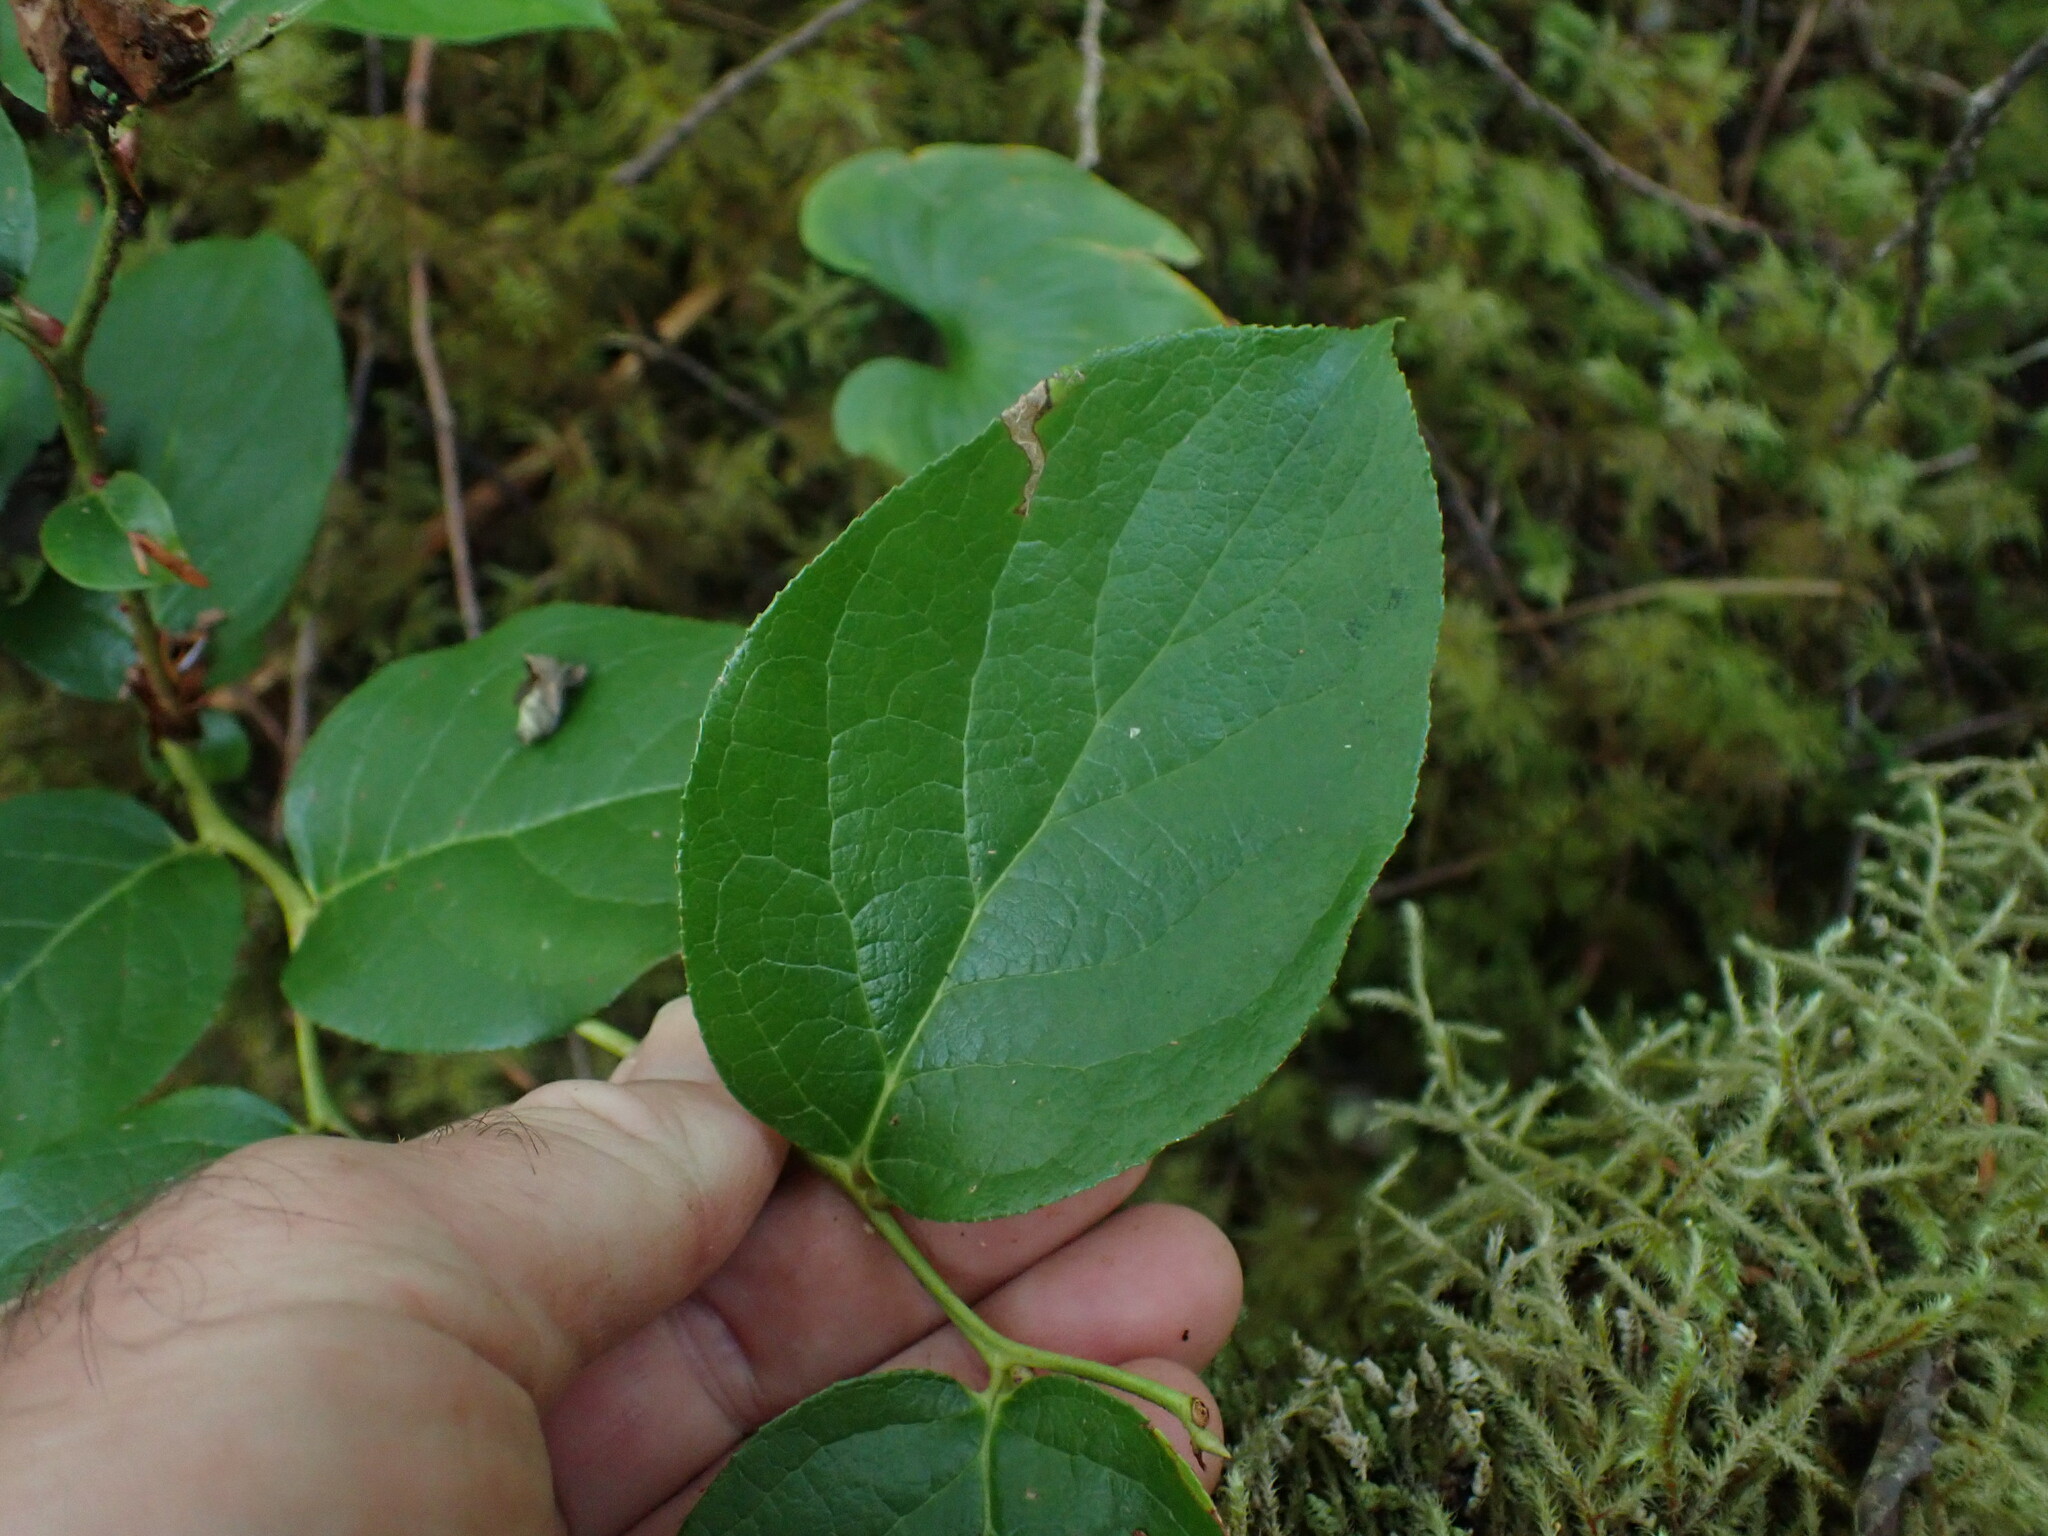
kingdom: Plantae
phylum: Tracheophyta
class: Magnoliopsida
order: Ericales
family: Ericaceae
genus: Gaultheria
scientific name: Gaultheria shallon
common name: Shallon
